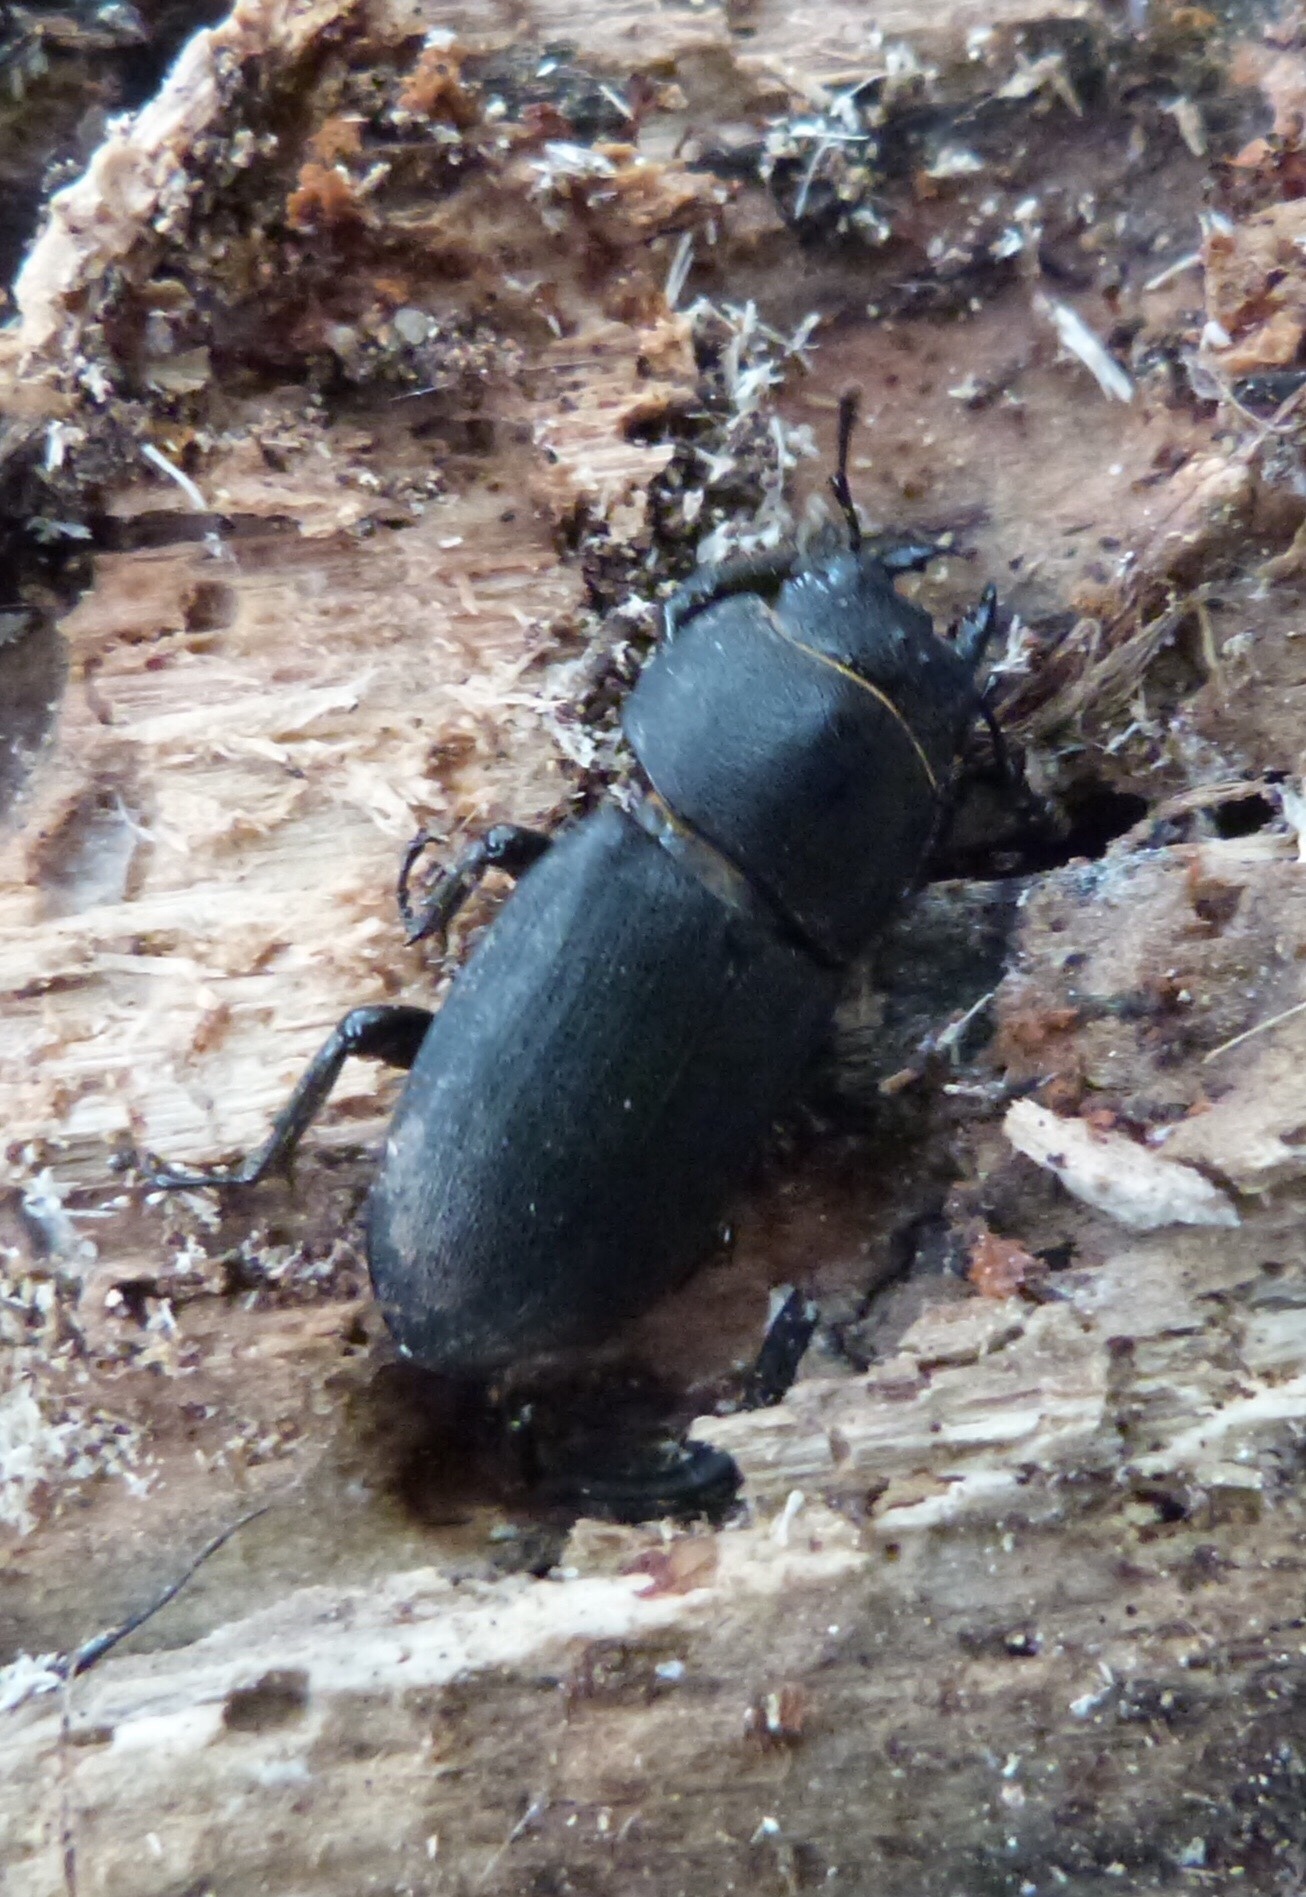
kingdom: Animalia
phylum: Arthropoda
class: Insecta
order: Coleoptera
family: Lucanidae
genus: Dorcus
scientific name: Dorcus parallelipipedus
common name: Lesser stag beetle
